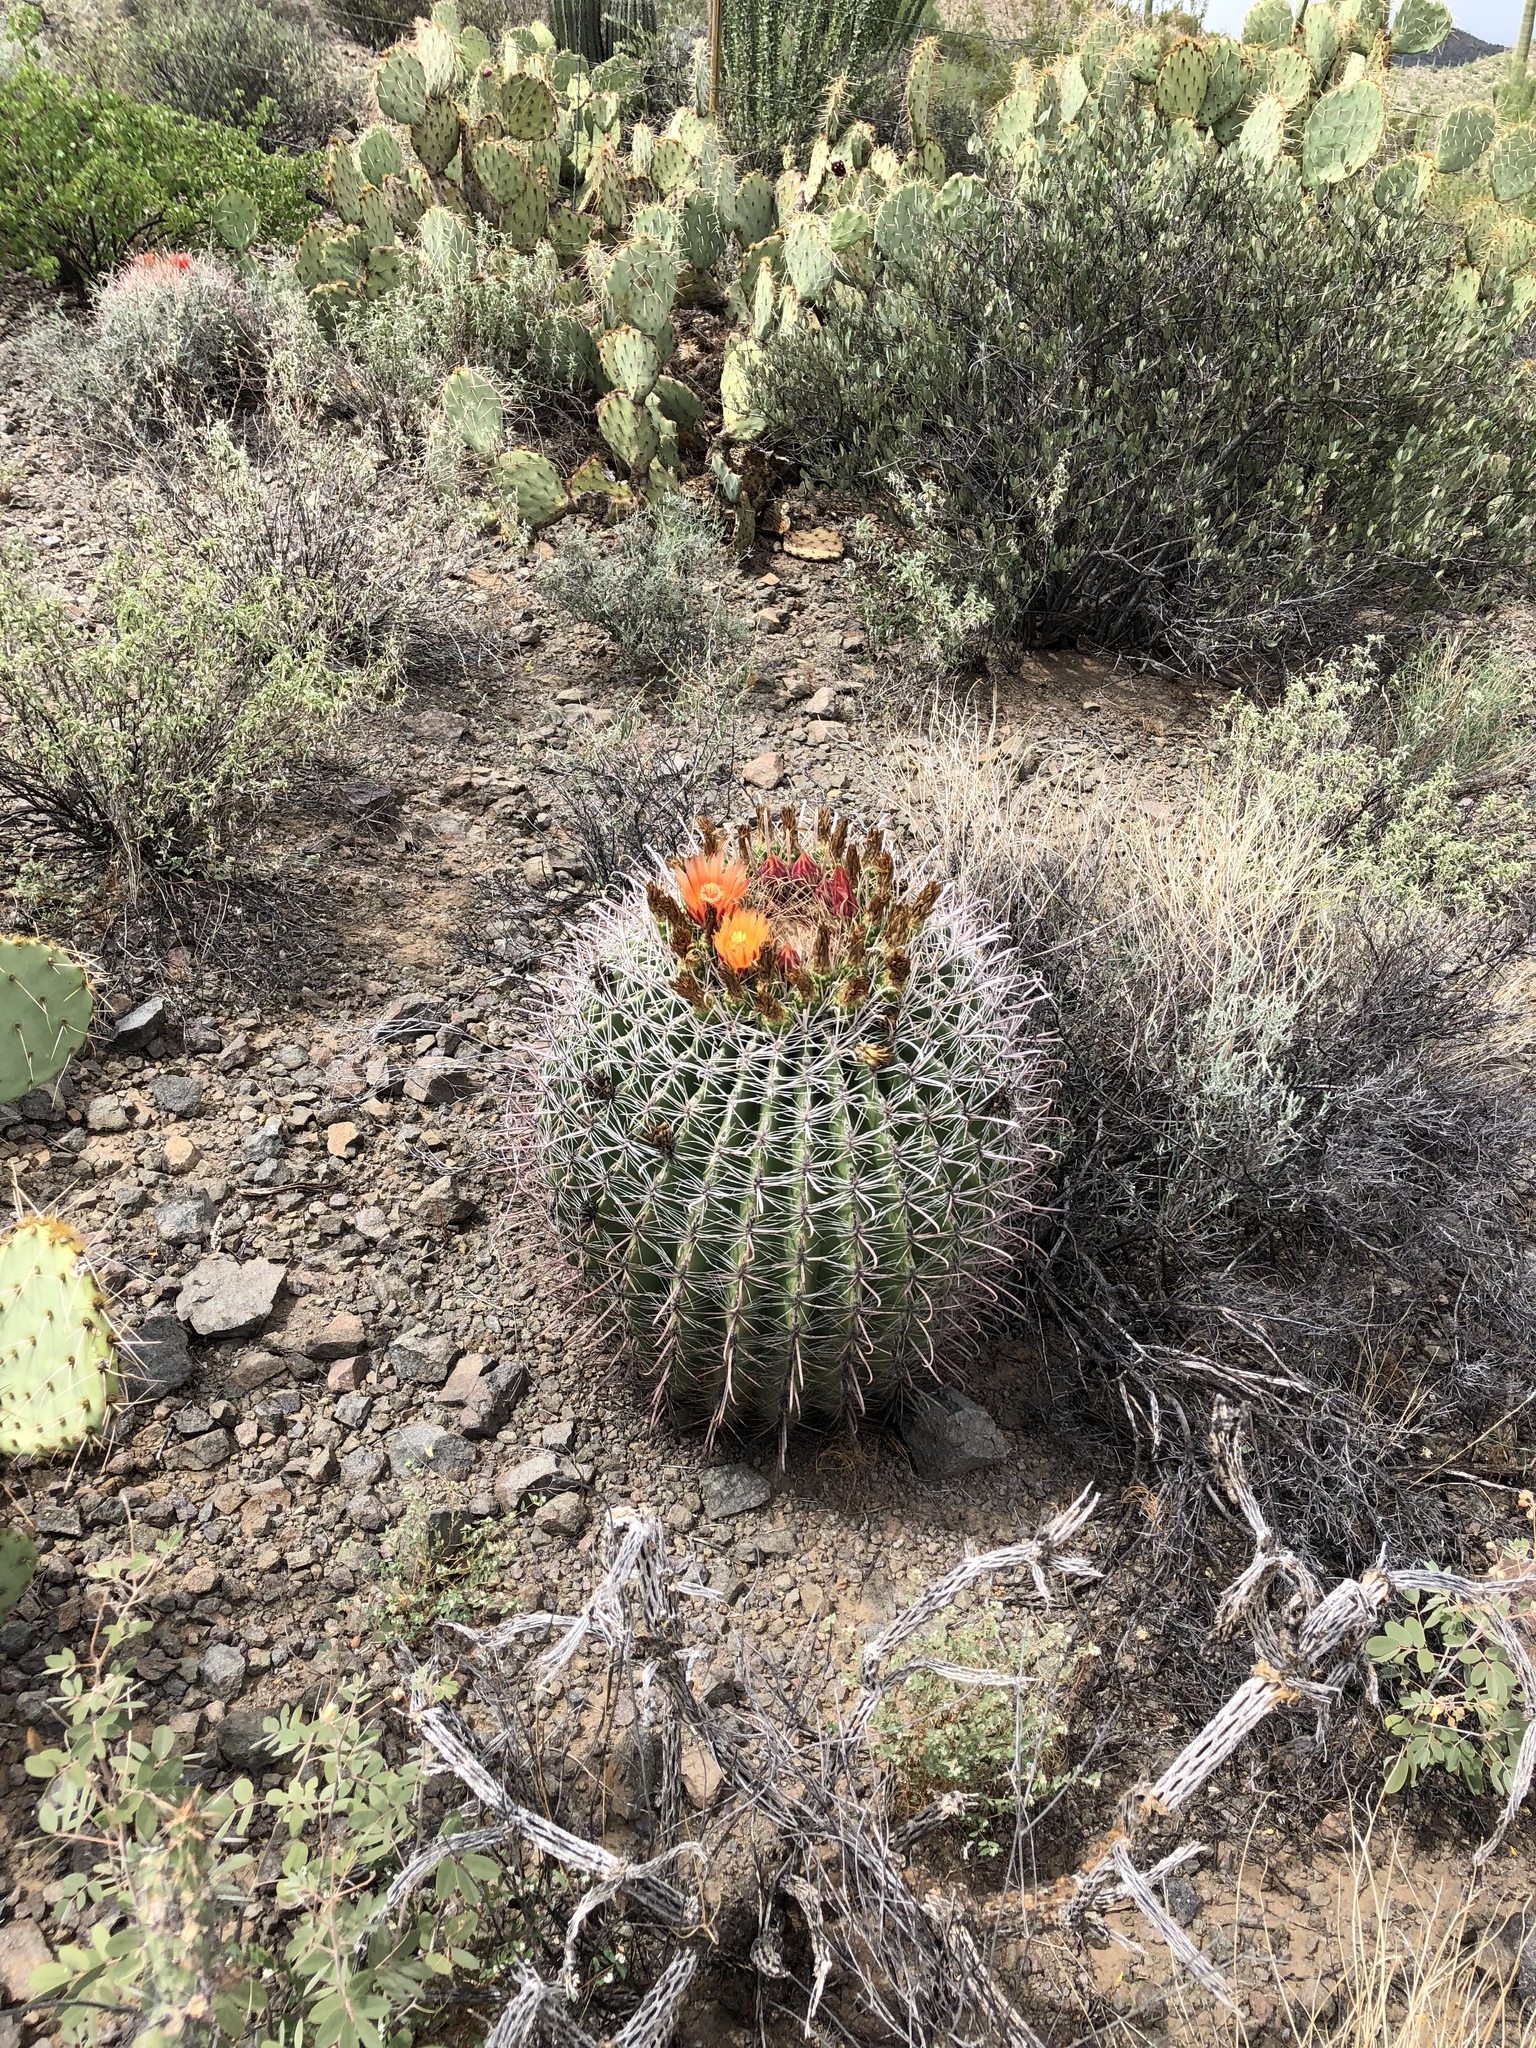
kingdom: Plantae
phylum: Tracheophyta
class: Magnoliopsida
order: Caryophyllales
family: Cactaceae
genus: Ferocactus
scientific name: Ferocactus wislizeni
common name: Candy barrel cactus
